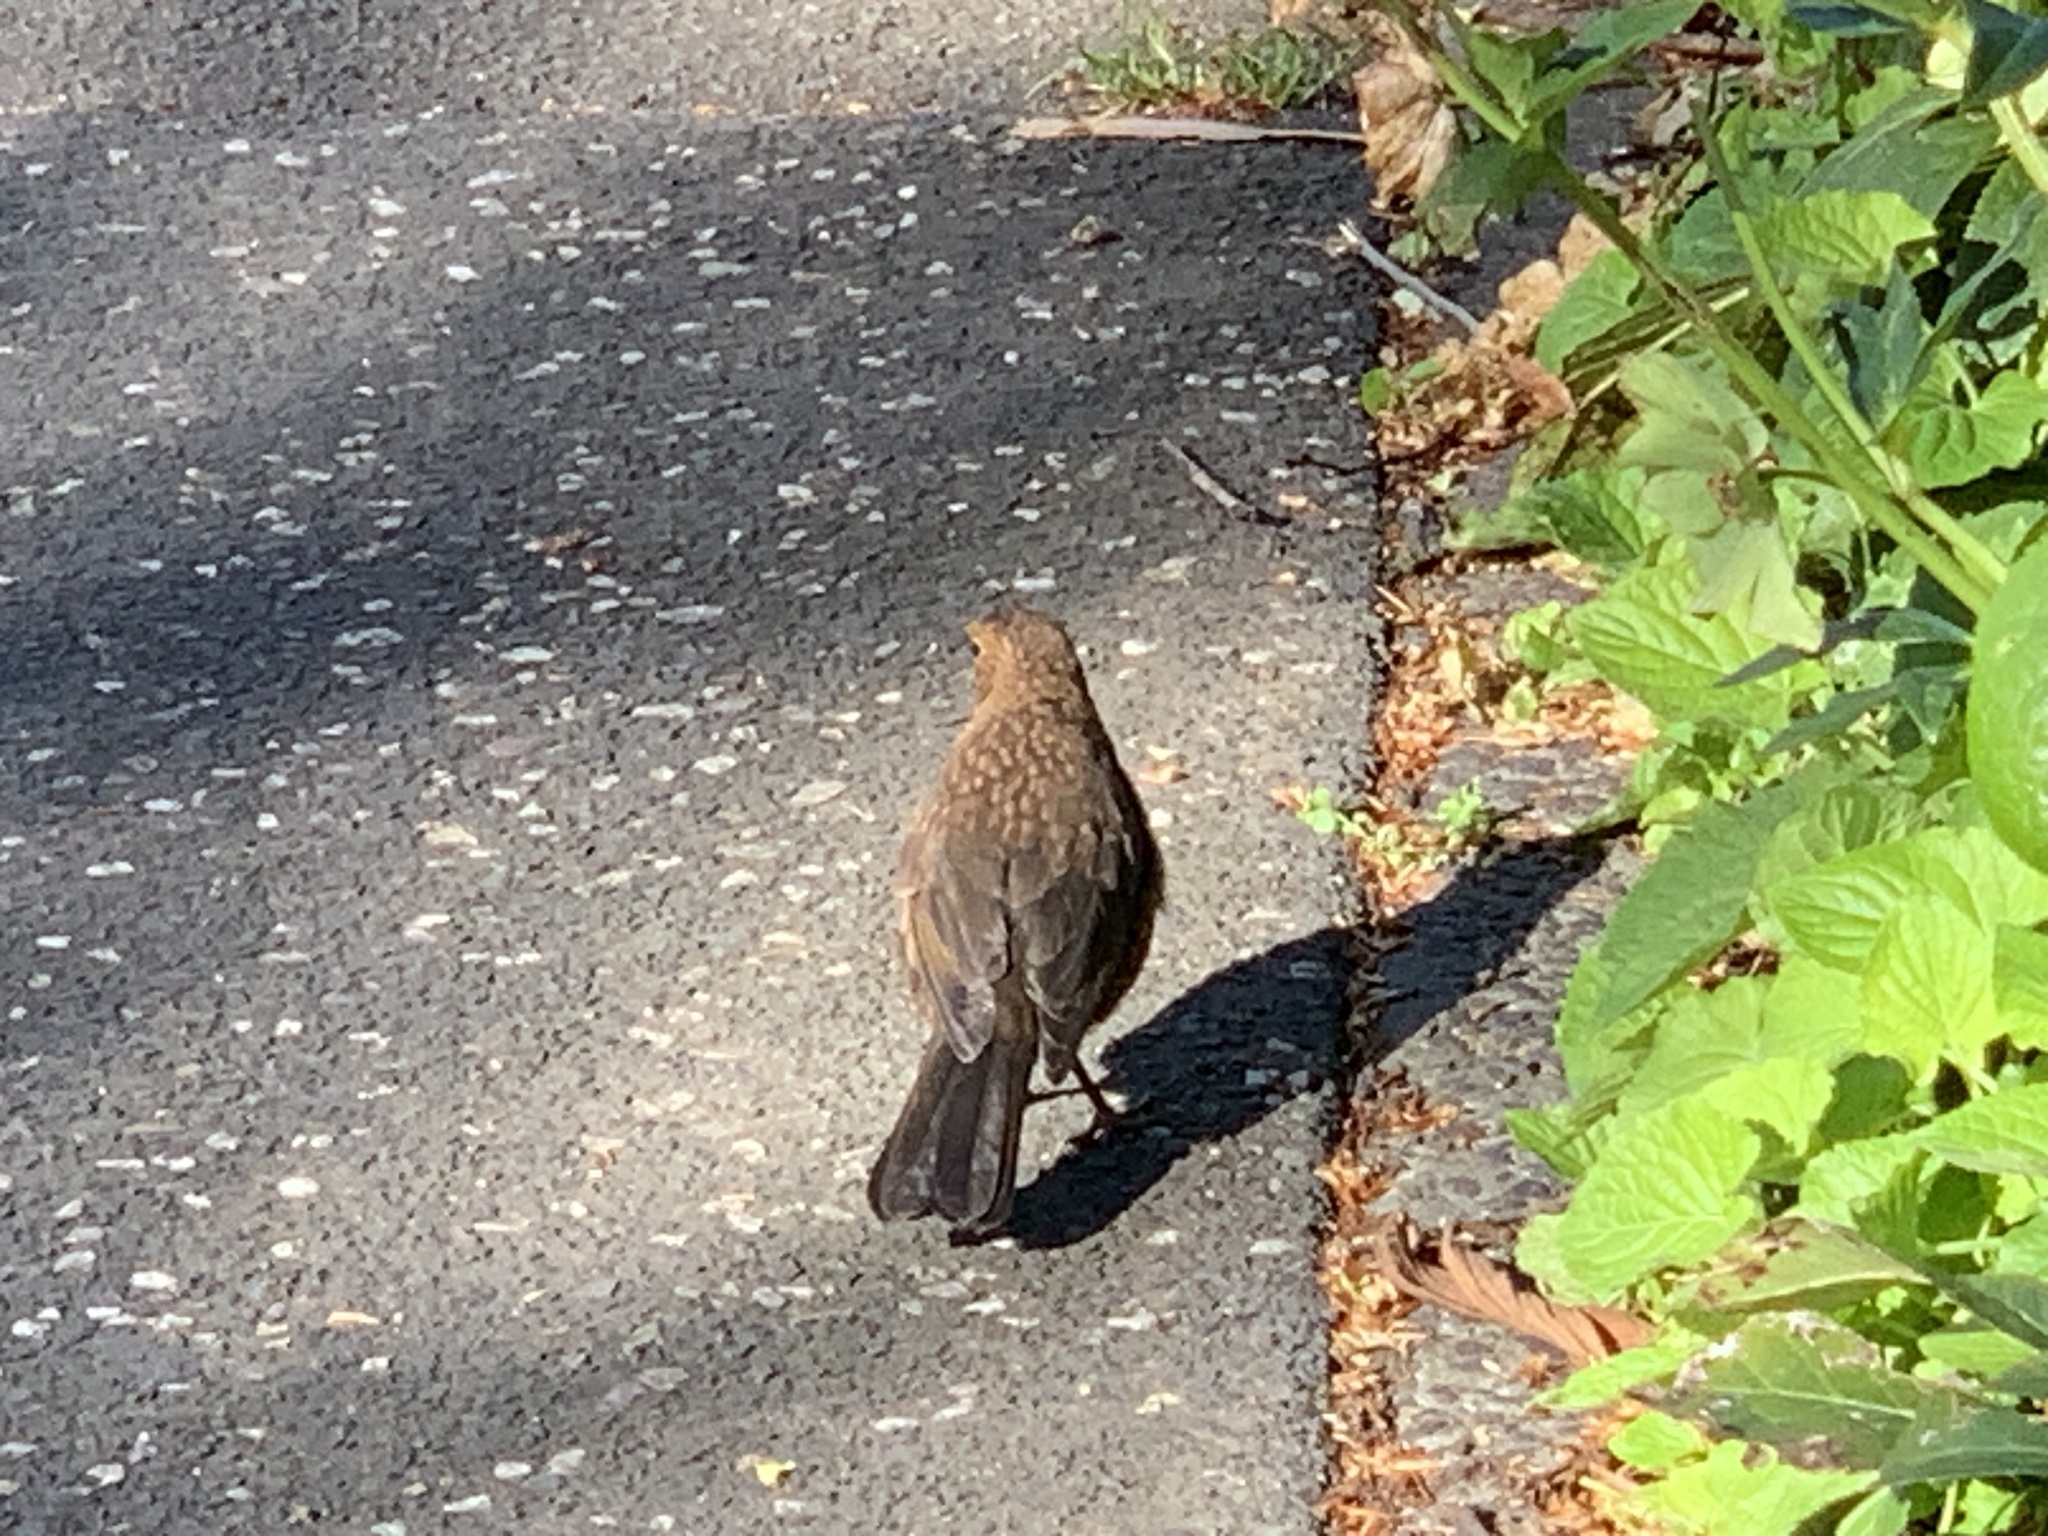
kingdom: Animalia
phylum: Chordata
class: Aves
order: Passeriformes
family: Turdidae
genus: Turdus
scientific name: Turdus merula
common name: Common blackbird
